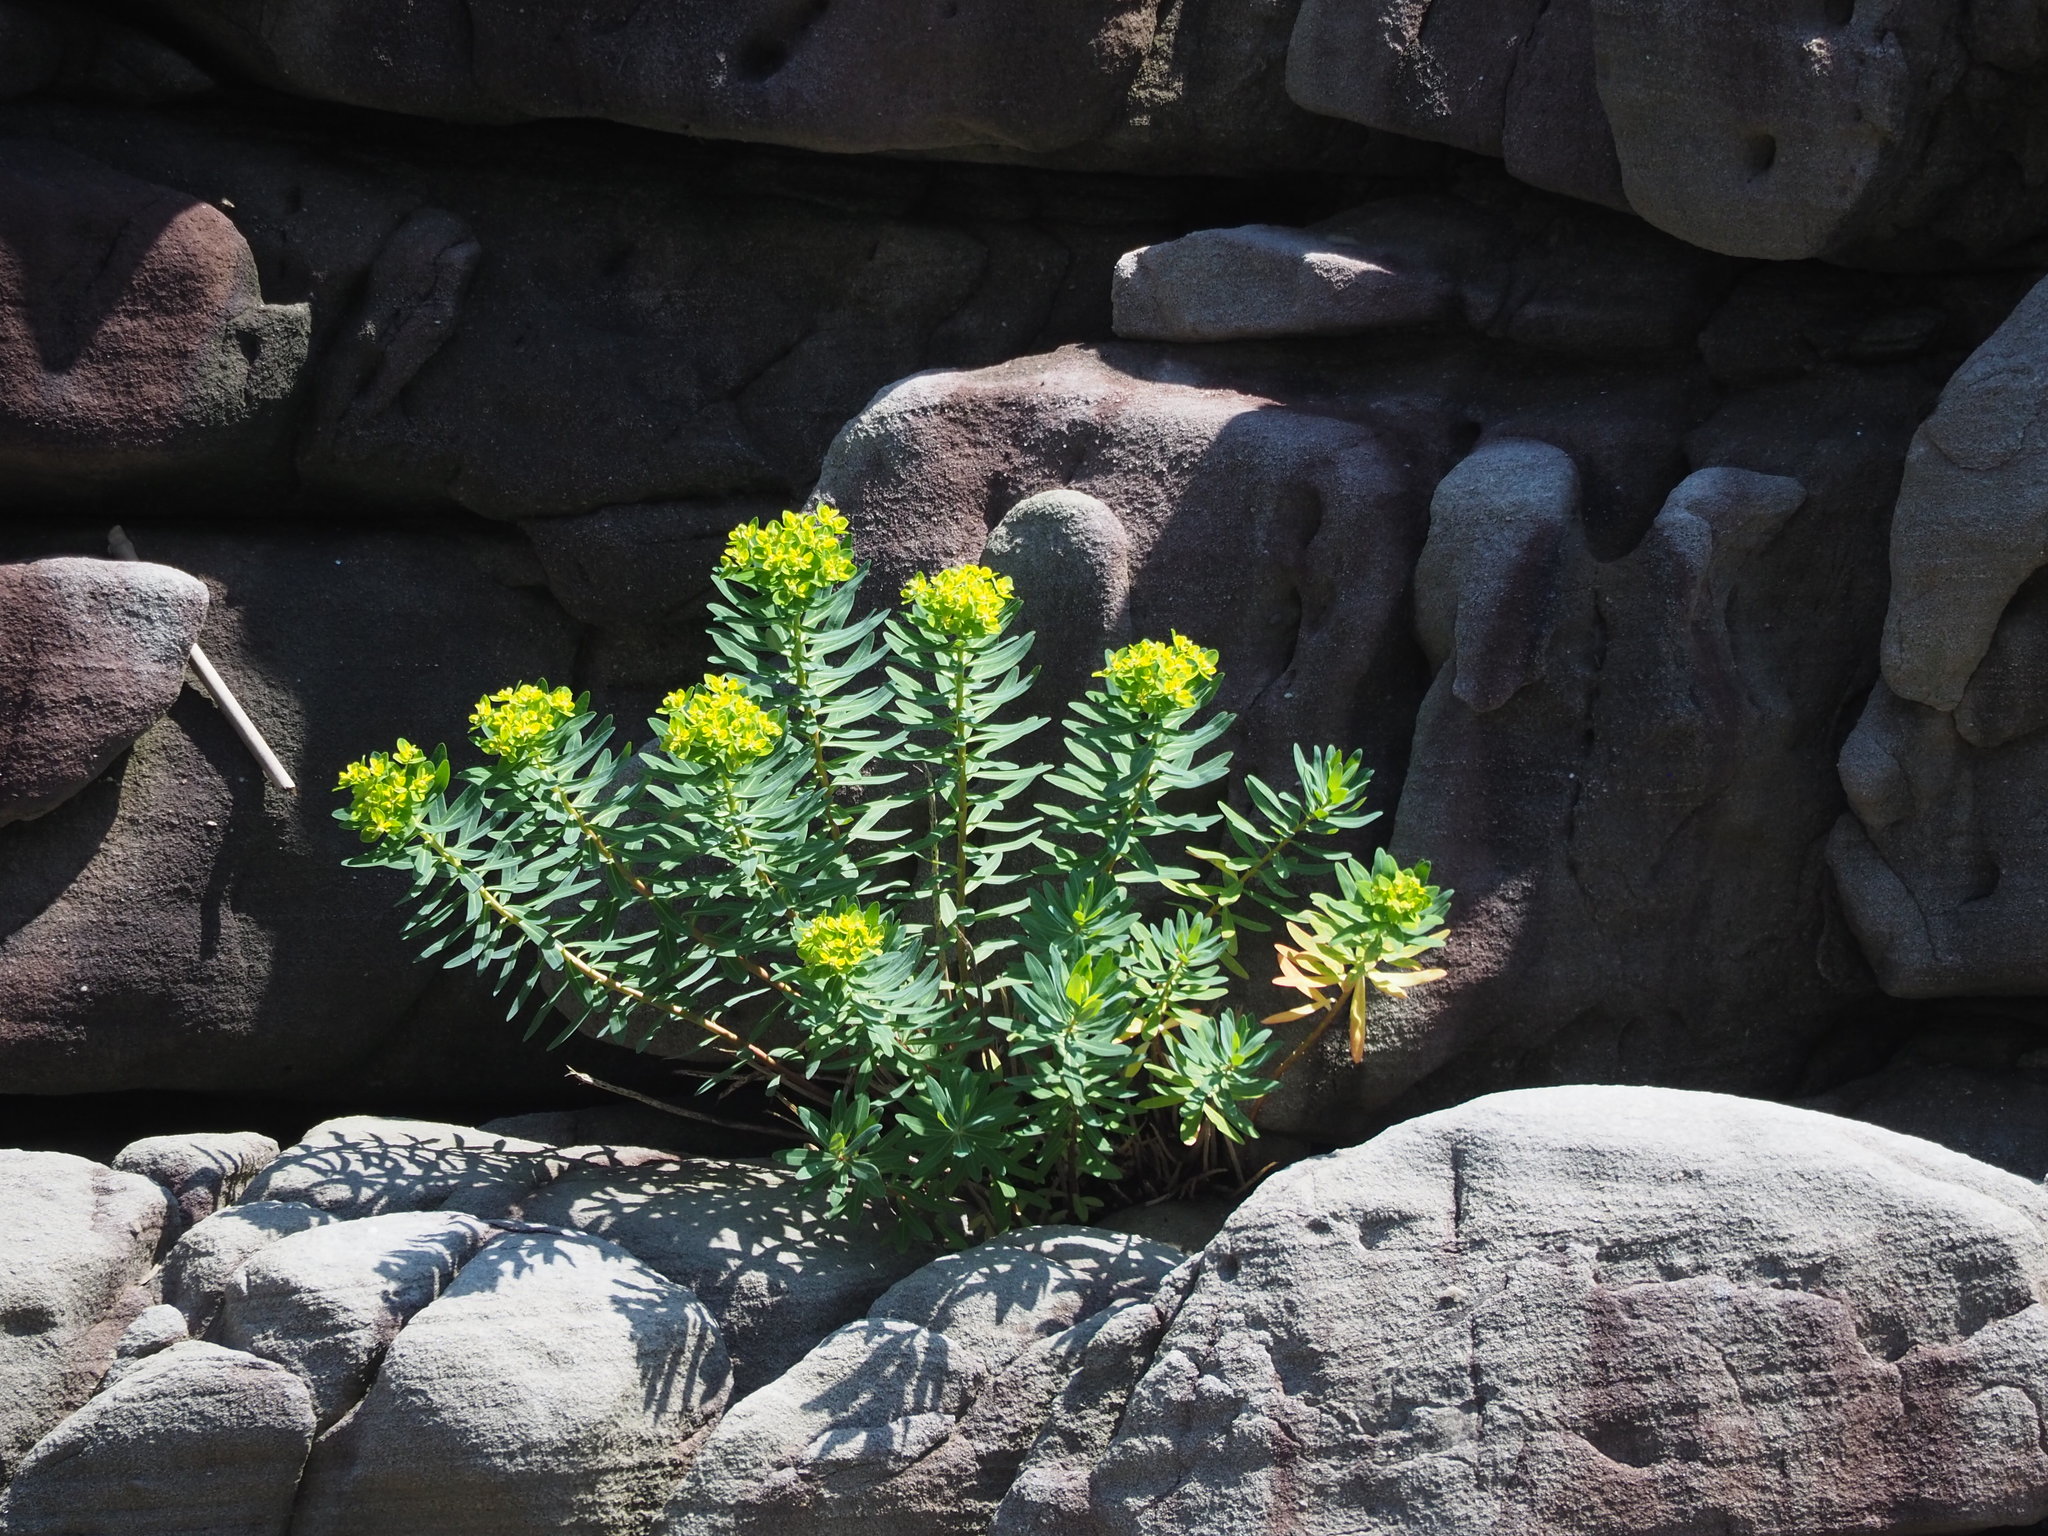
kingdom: Plantae
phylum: Tracheophyta
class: Magnoliopsida
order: Malpighiales
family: Euphorbiaceae
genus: Euphorbia
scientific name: Euphorbia jolkinii
